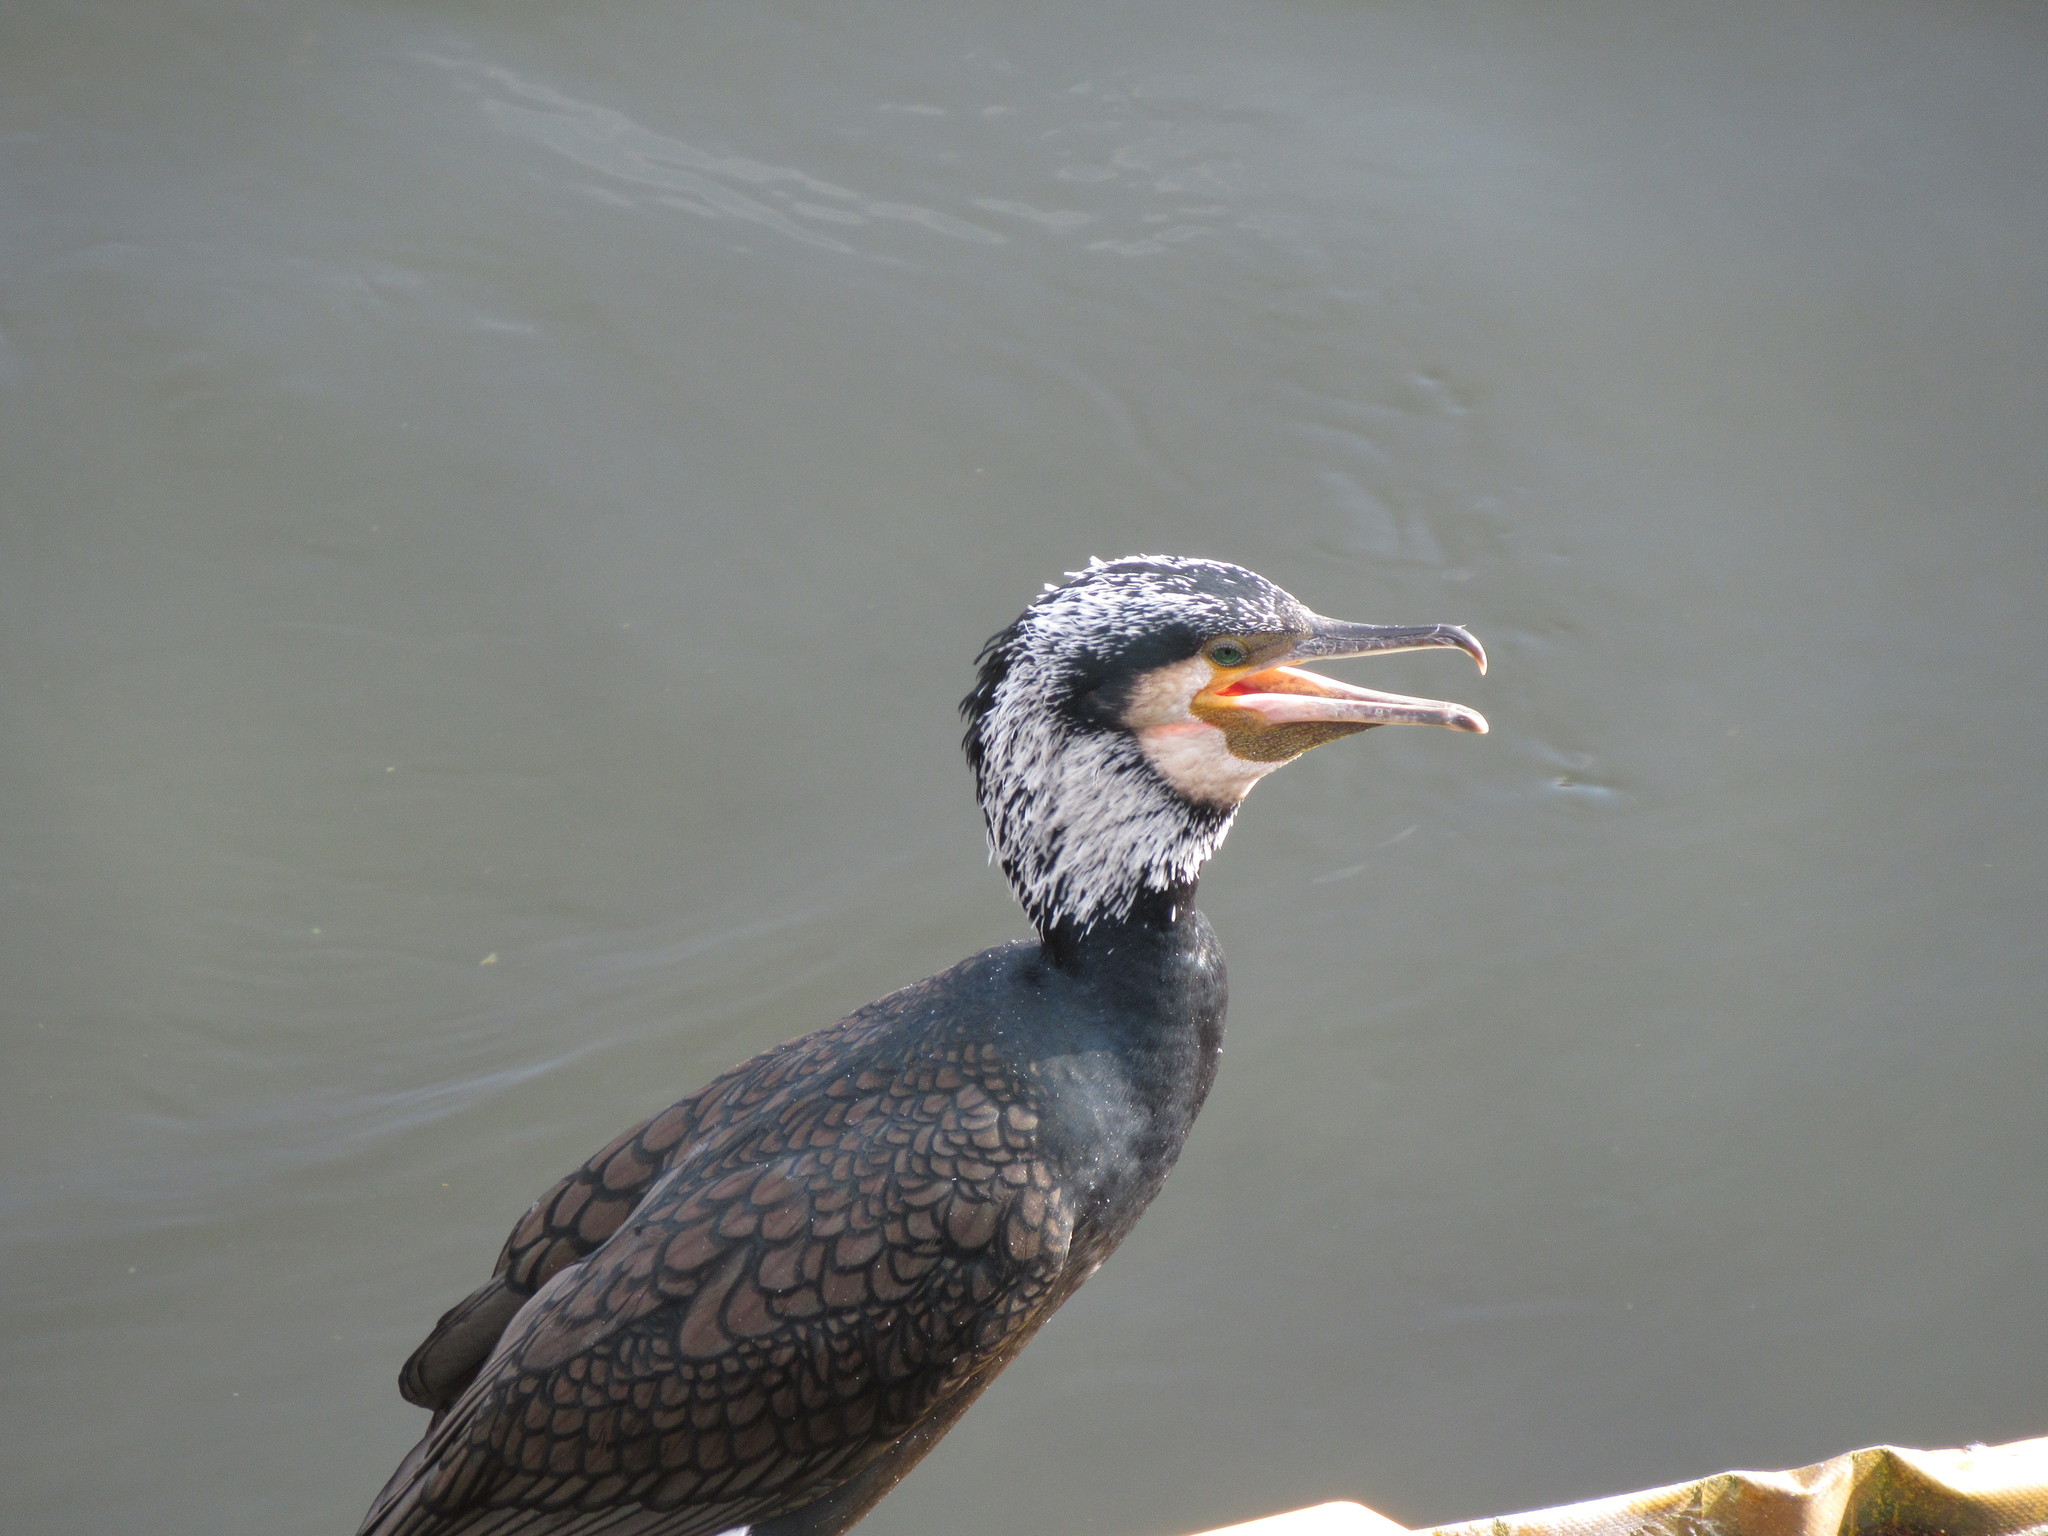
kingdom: Animalia
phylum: Chordata
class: Aves
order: Suliformes
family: Phalacrocoracidae
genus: Phalacrocorax
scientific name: Phalacrocorax carbo
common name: Great cormorant
